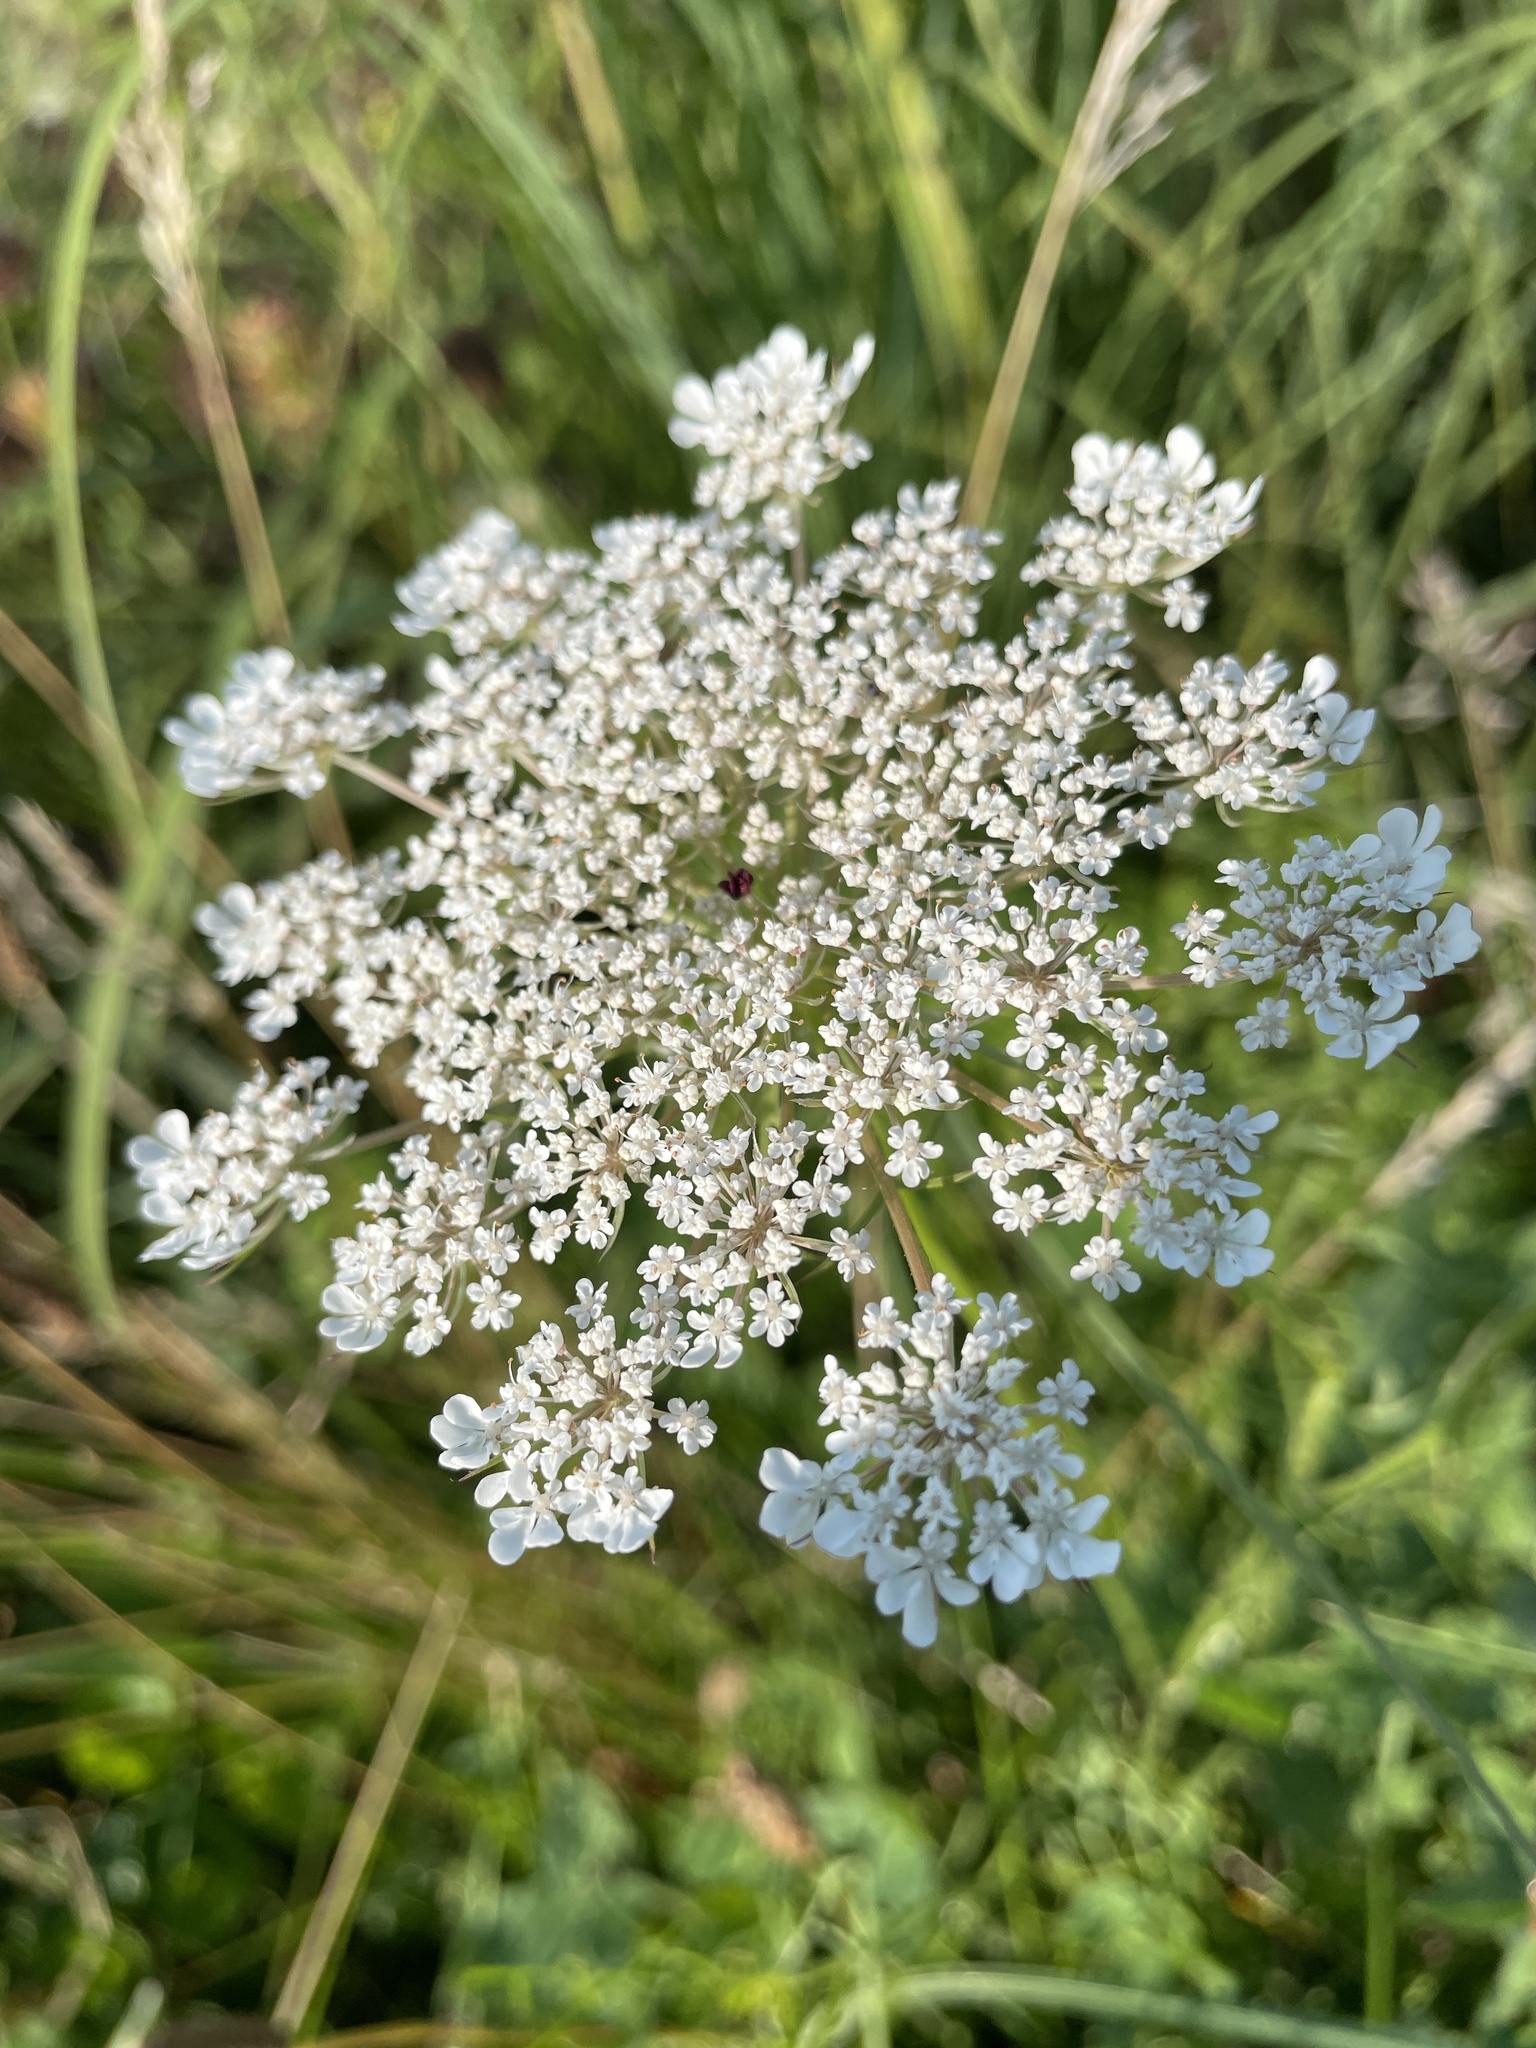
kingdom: Plantae
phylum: Tracheophyta
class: Magnoliopsida
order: Apiales
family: Apiaceae
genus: Daucus
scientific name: Daucus carota
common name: Wild carrot
